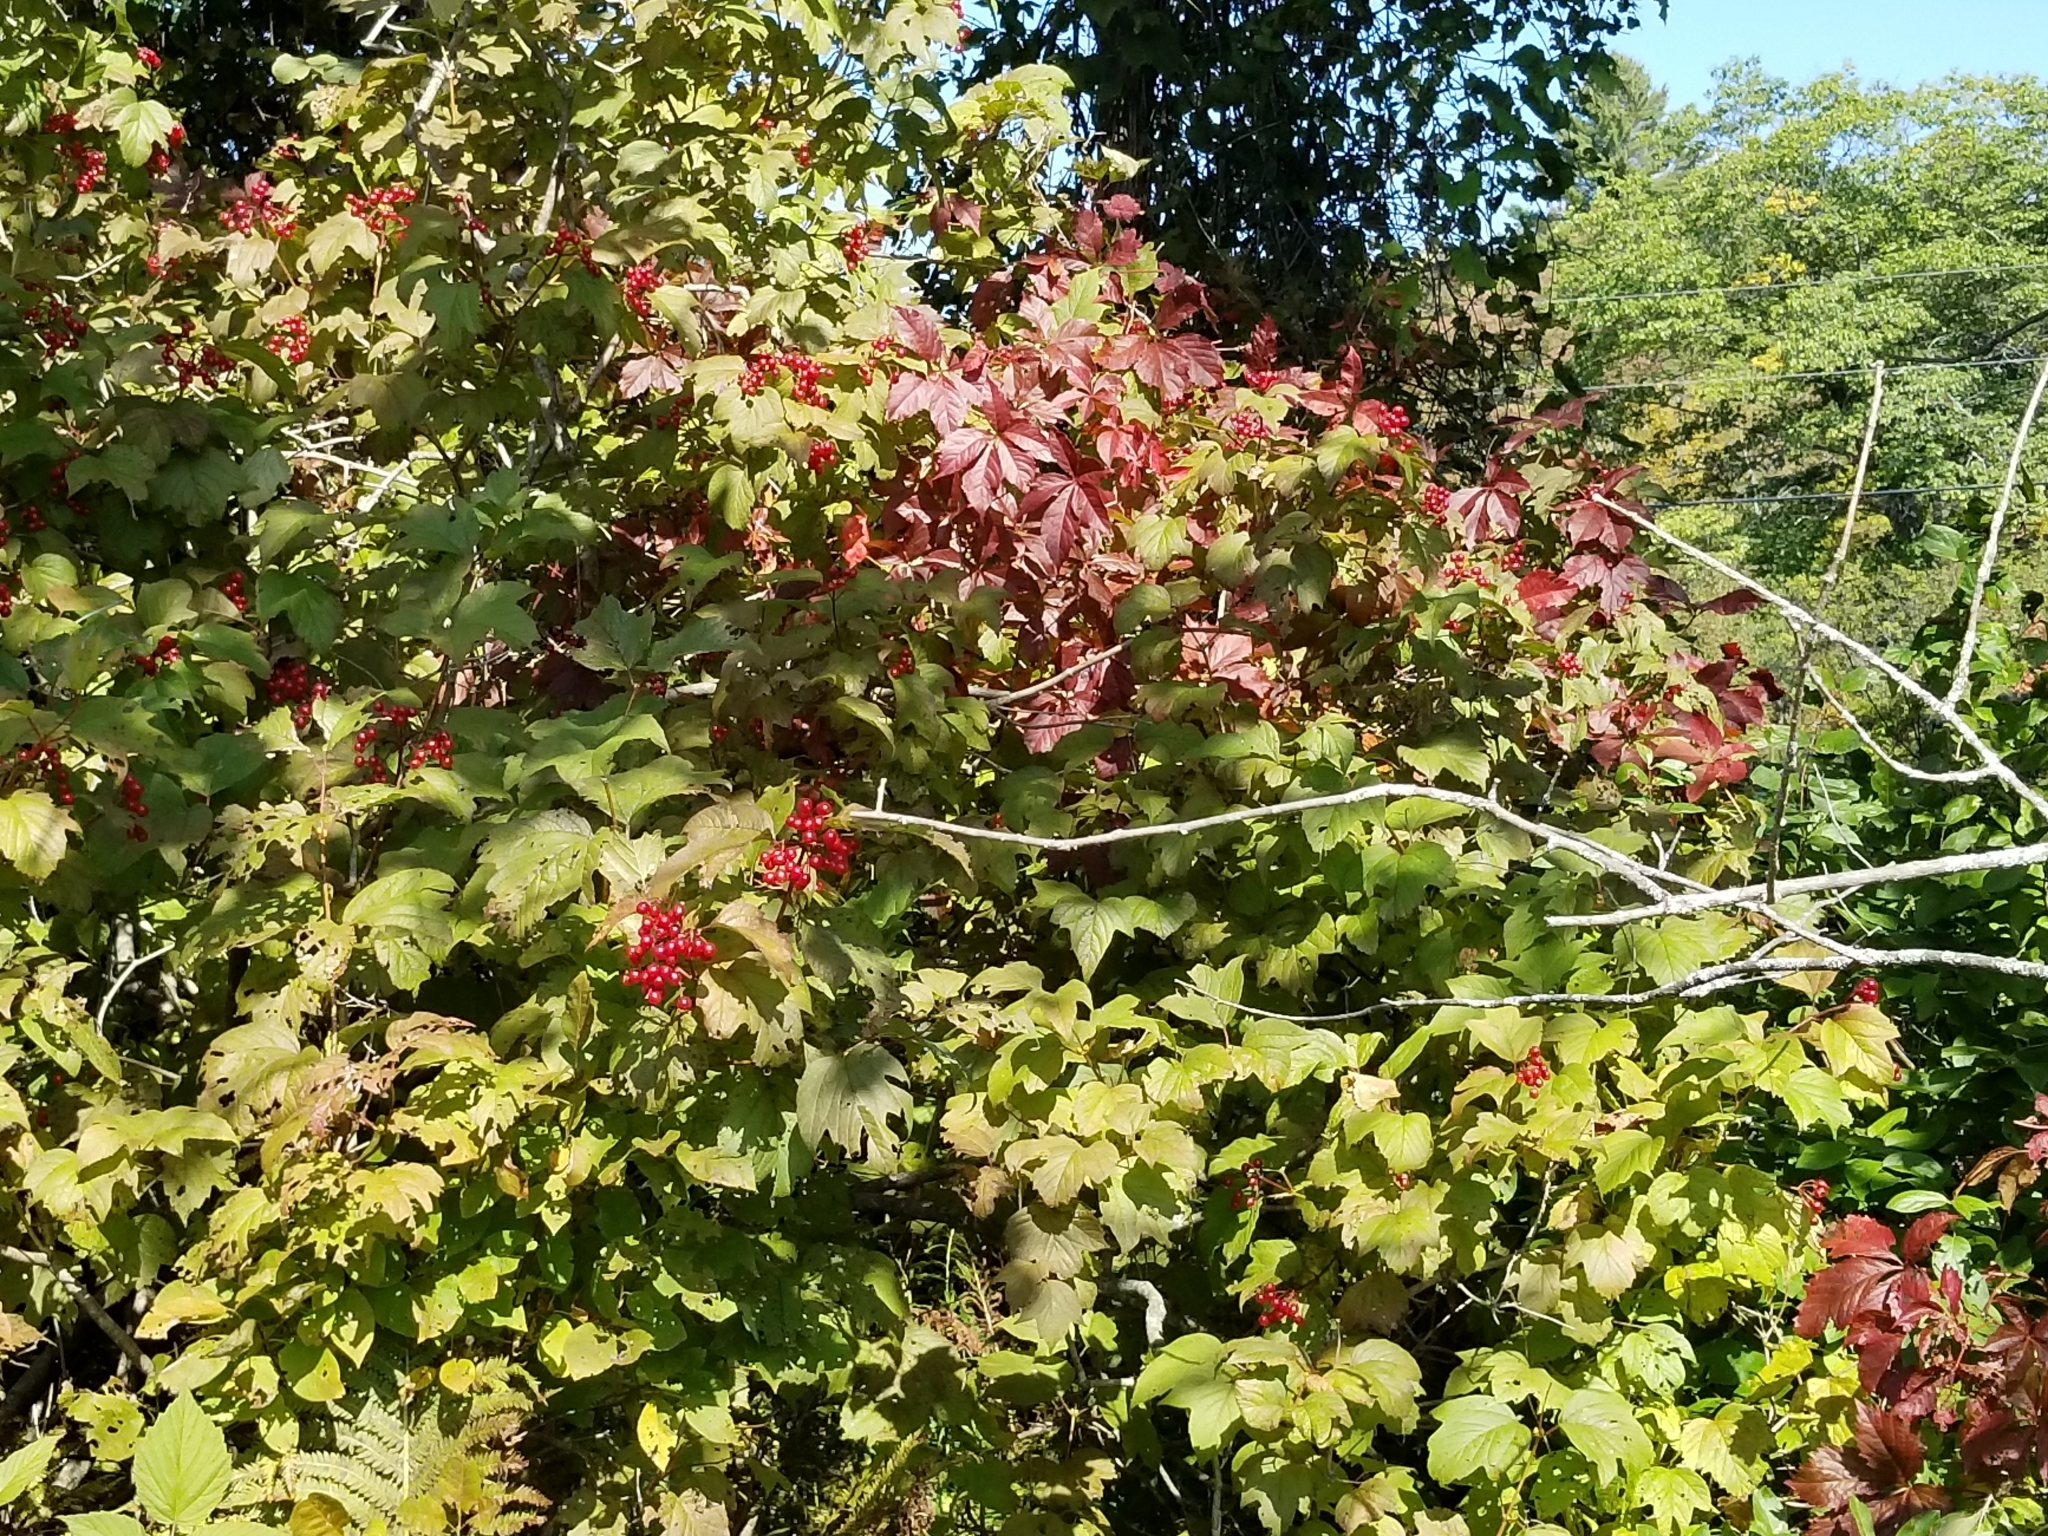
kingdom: Plantae
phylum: Tracheophyta
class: Magnoliopsida
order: Dipsacales
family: Viburnaceae
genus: Viburnum
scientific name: Viburnum opulus
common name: Guelder-rose
